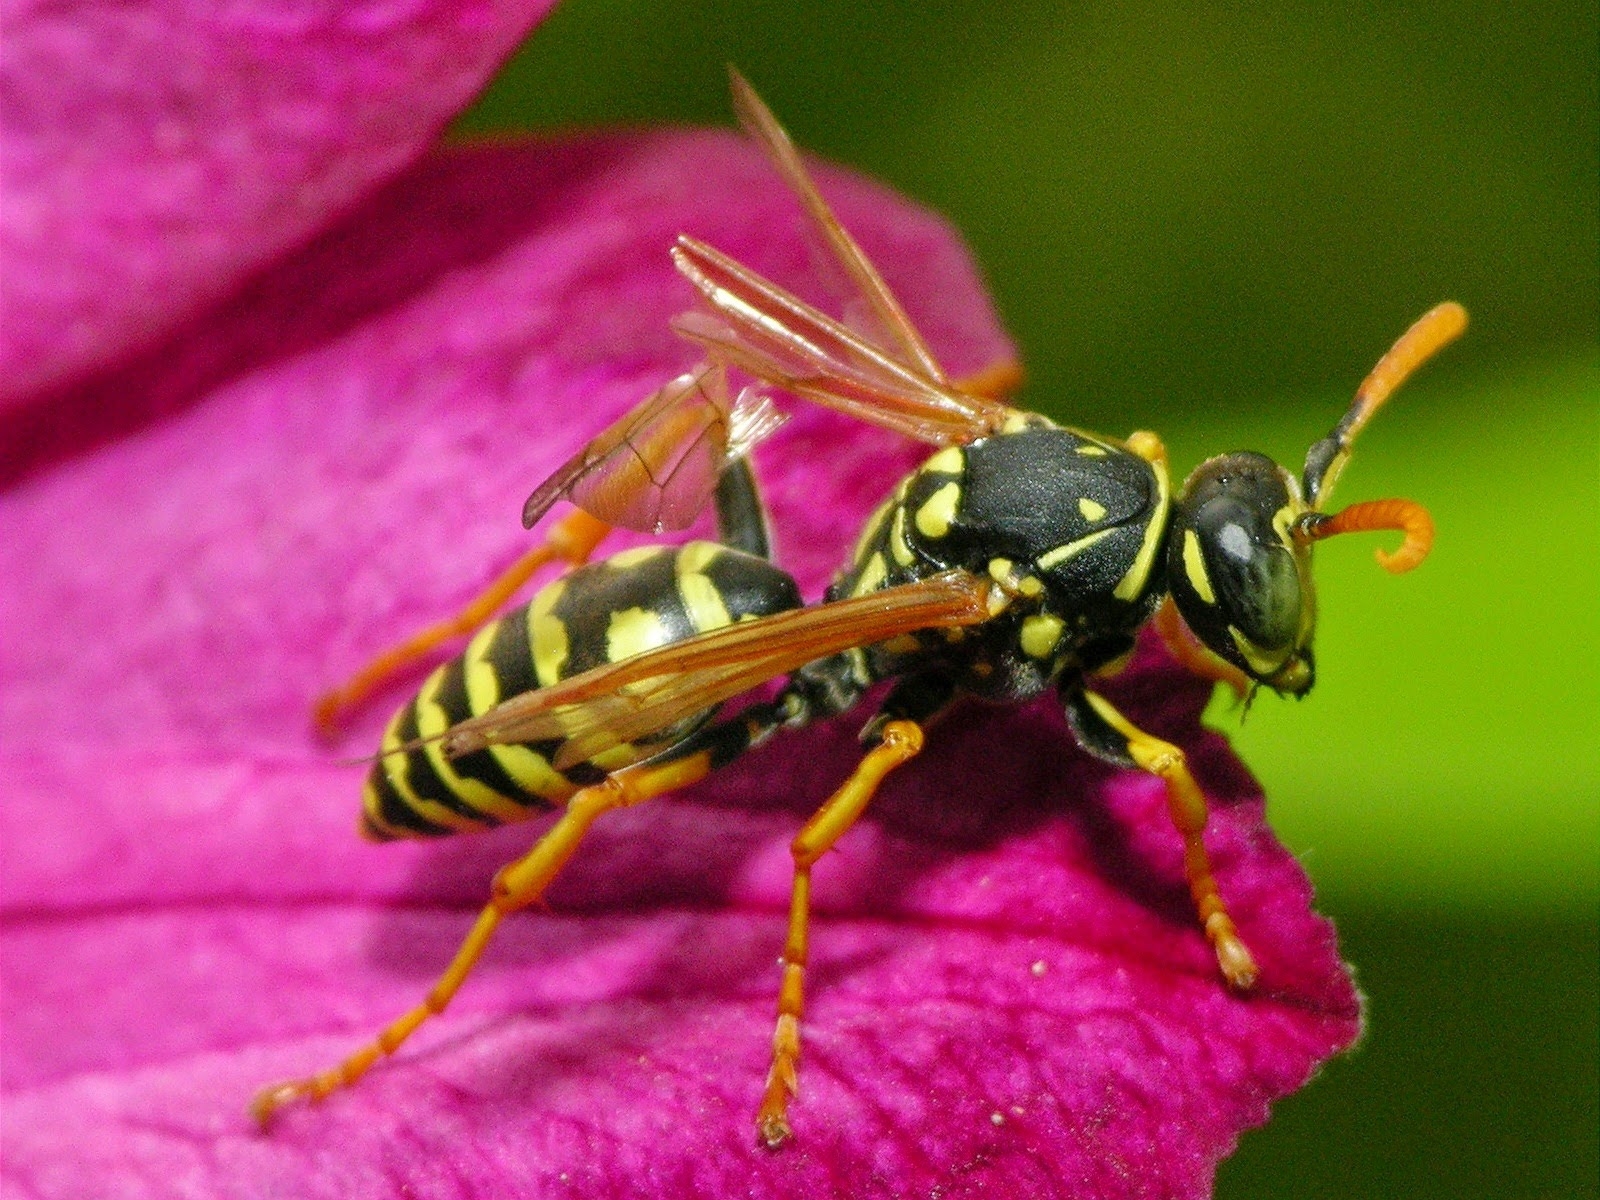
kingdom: Animalia
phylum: Arthropoda
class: Insecta
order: Hymenoptera
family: Eumenidae
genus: Polistes
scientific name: Polistes dominula
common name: Paper wasp
